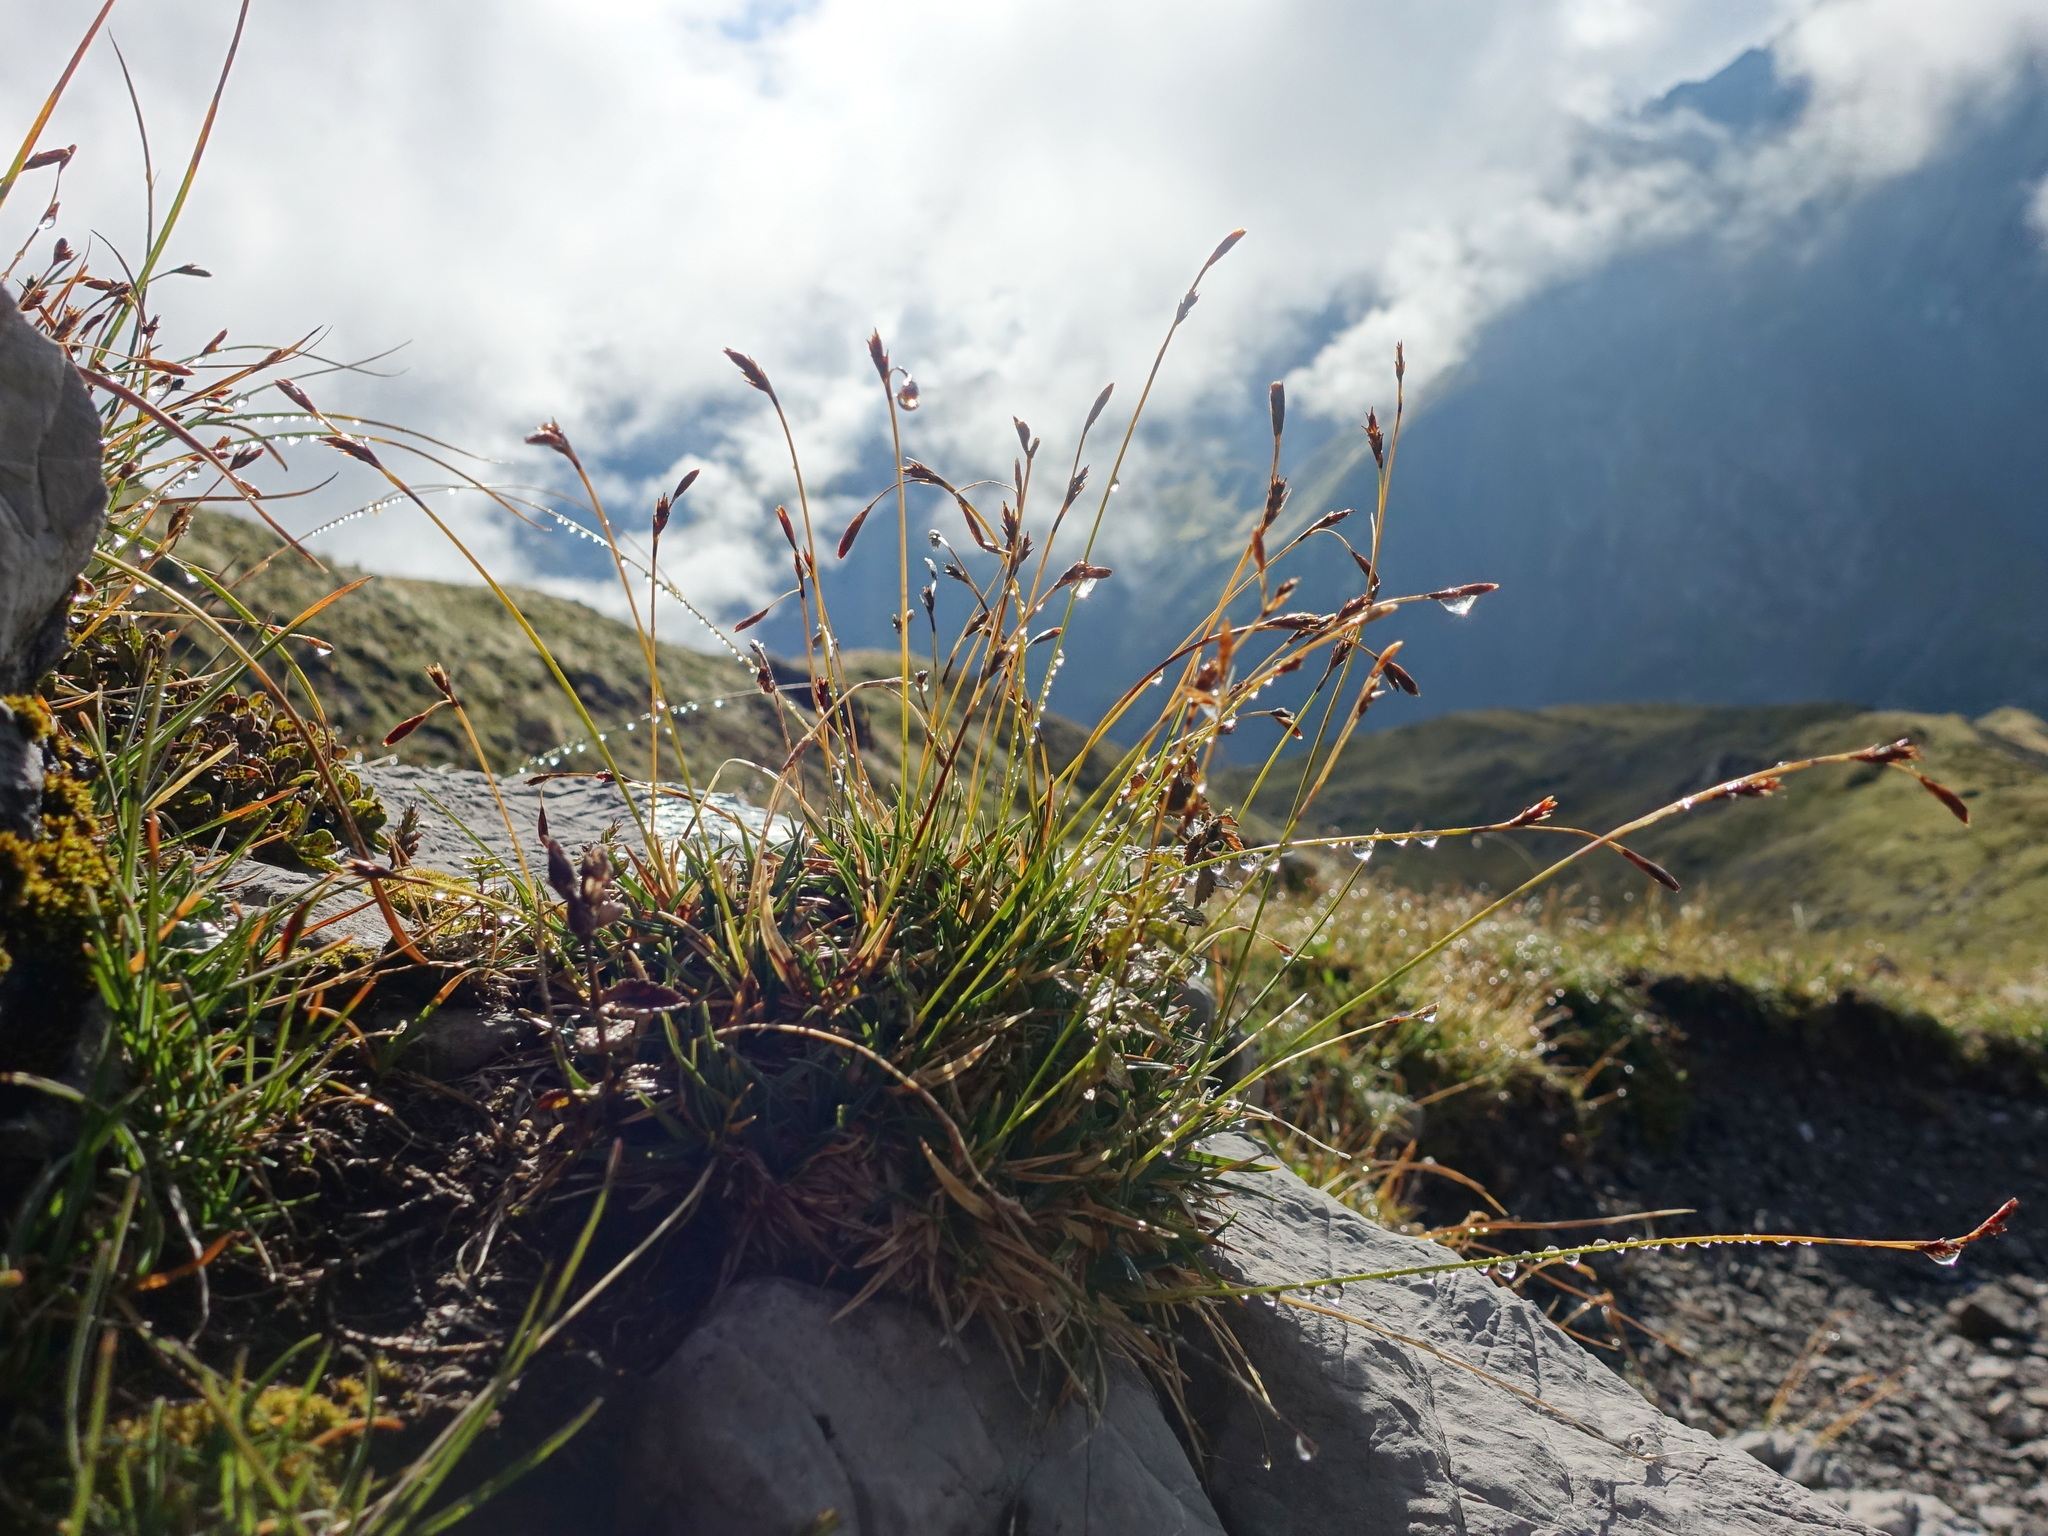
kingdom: Plantae
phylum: Tracheophyta
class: Liliopsida
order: Poales
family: Cyperaceae
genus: Carex
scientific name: Carex firma
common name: Dwarf pillow sedge
